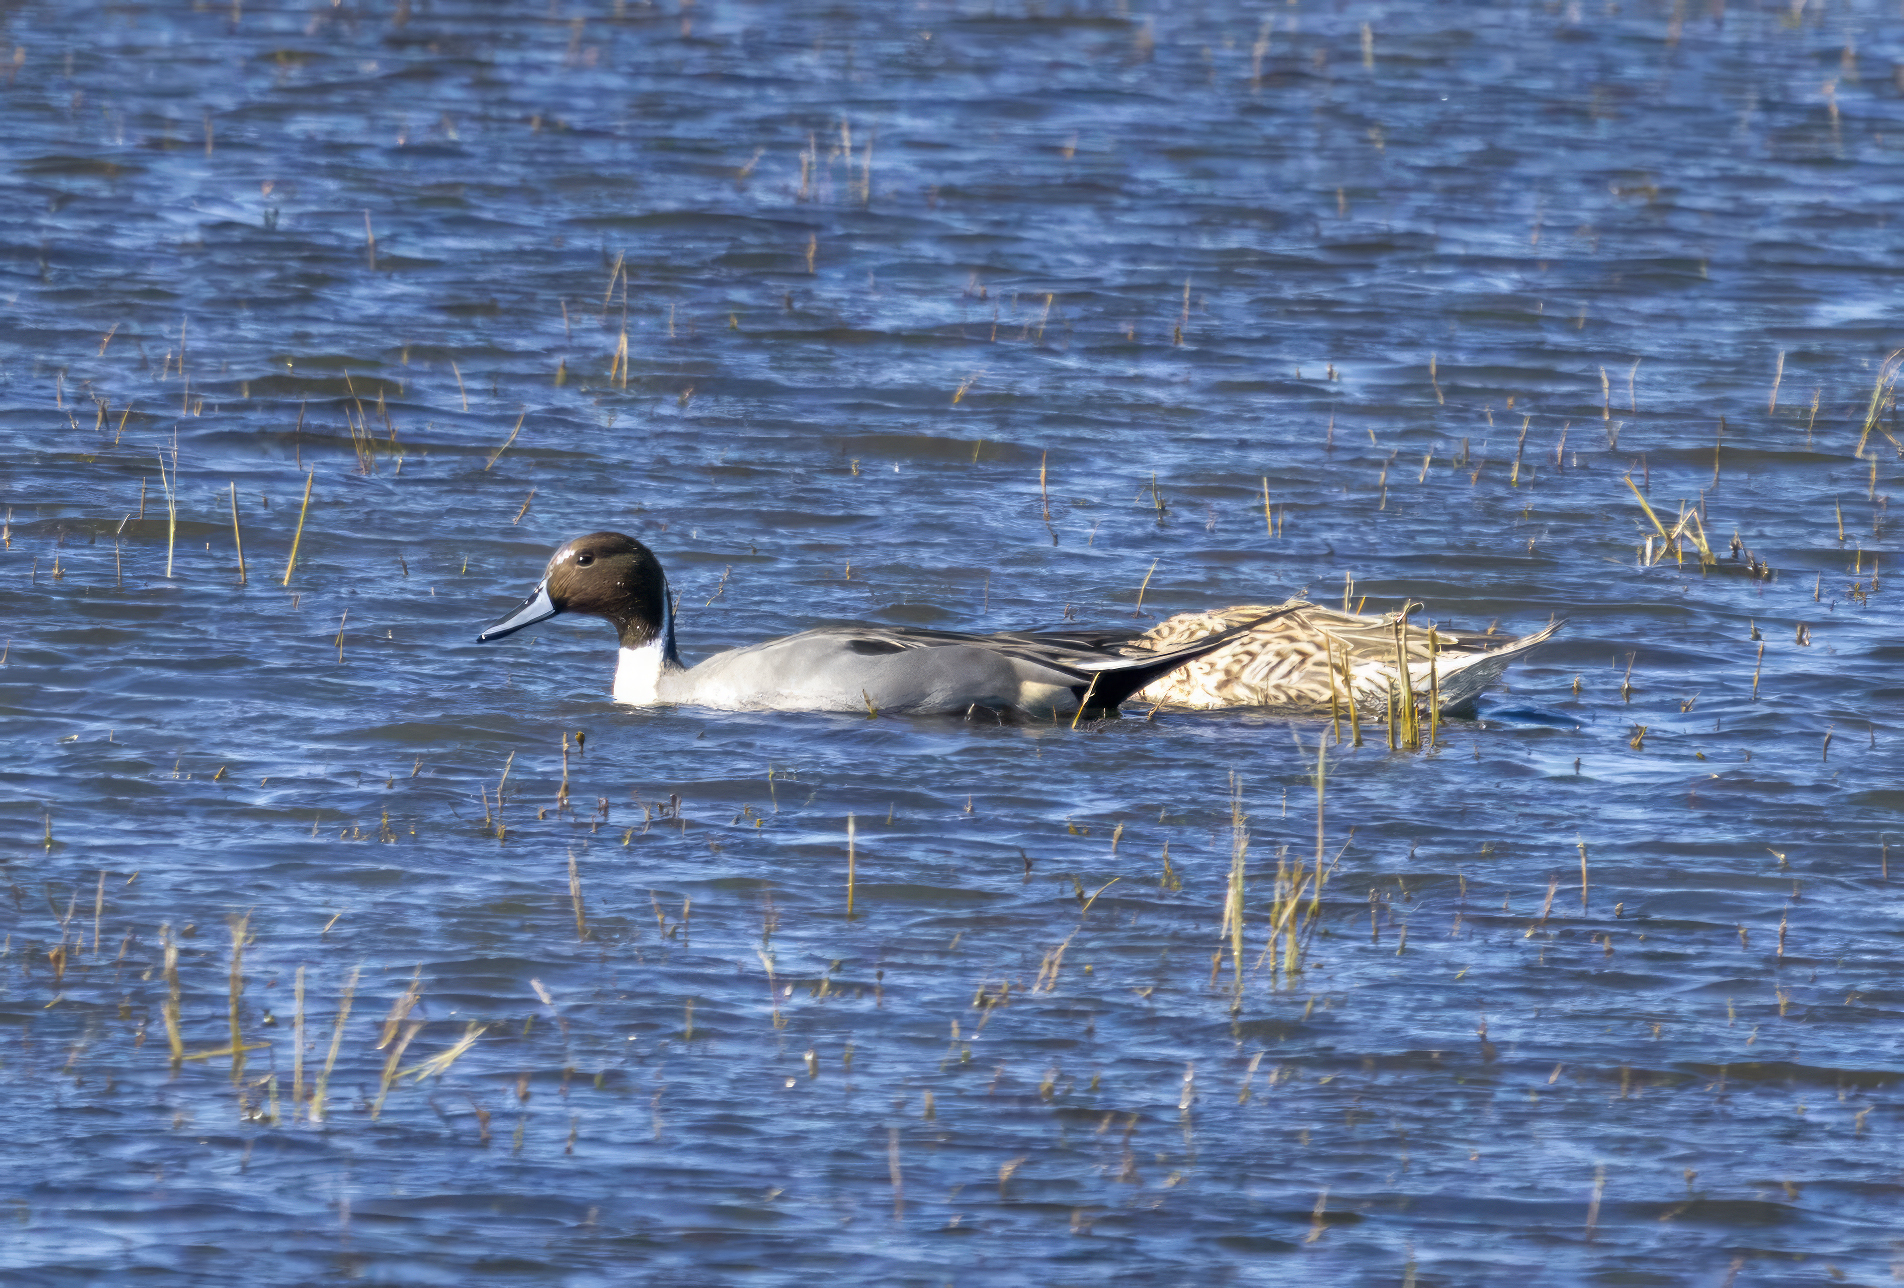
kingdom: Animalia
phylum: Chordata
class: Aves
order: Anseriformes
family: Anatidae
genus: Anas
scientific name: Anas acuta
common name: Northern pintail
